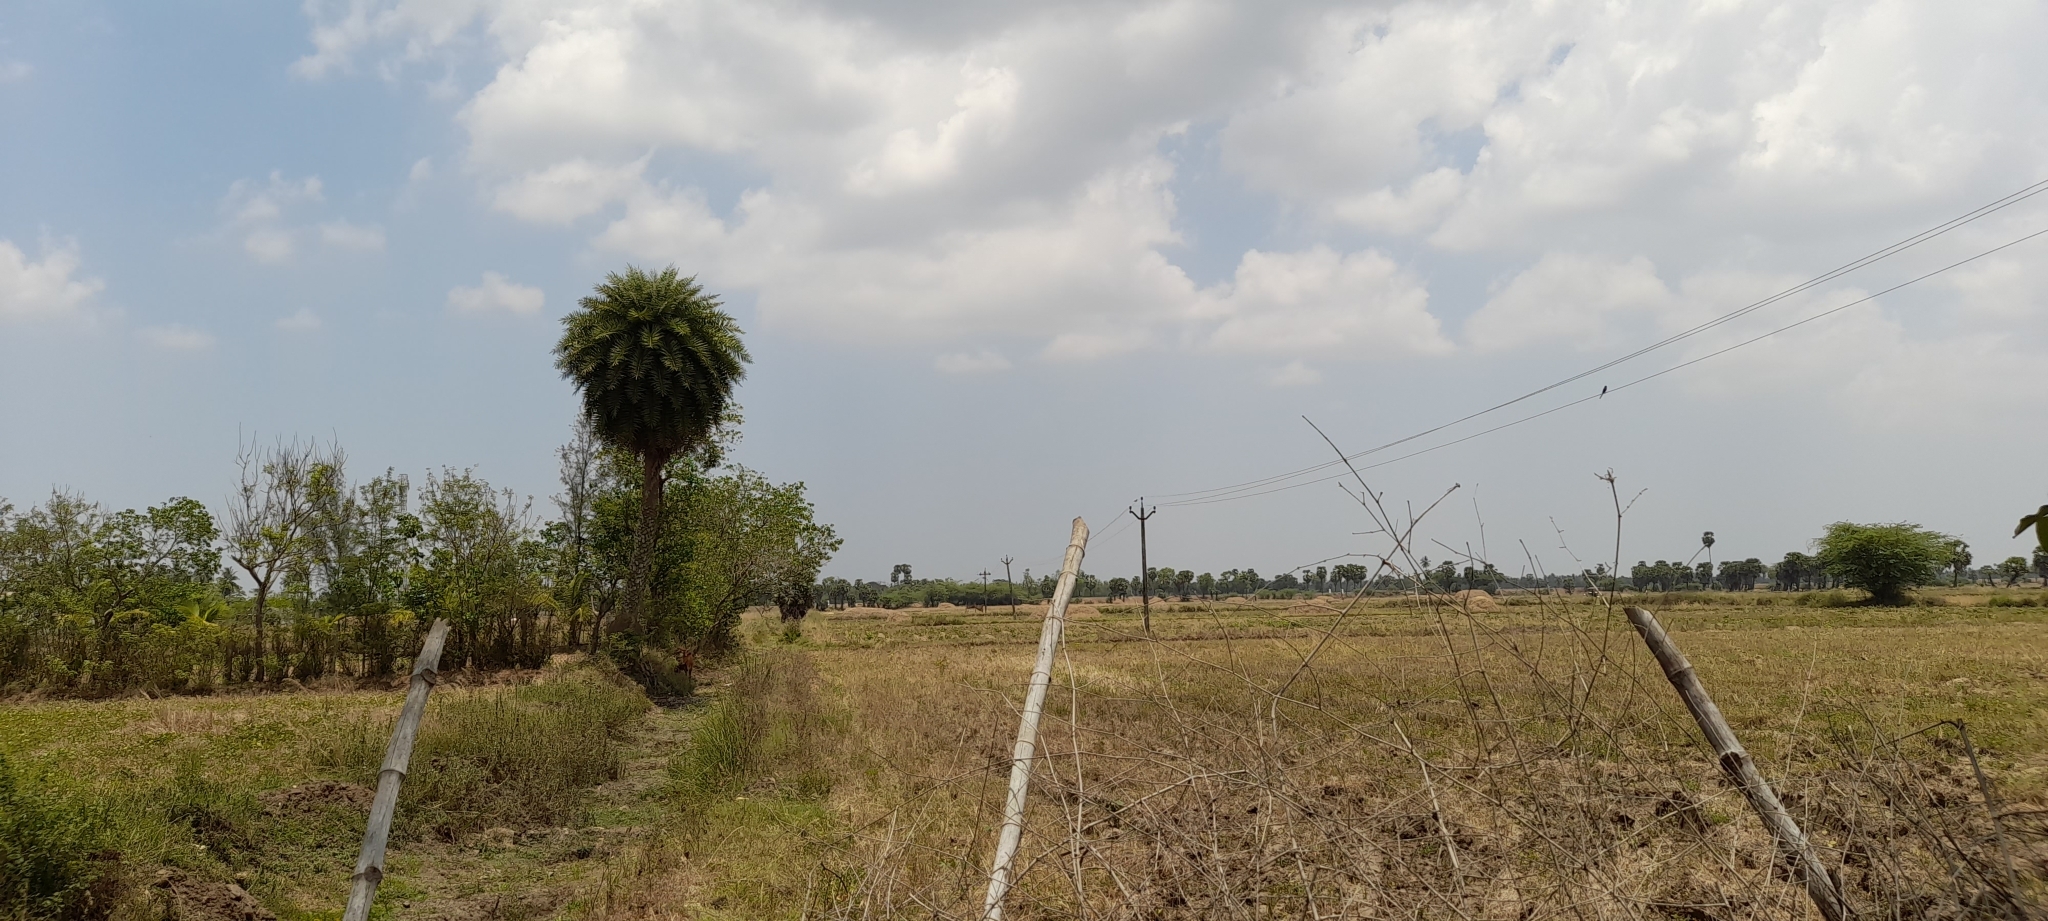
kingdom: Plantae
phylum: Tracheophyta
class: Liliopsida
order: Arecales
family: Arecaceae
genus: Phoenix
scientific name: Phoenix sylvestris
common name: Wild date palm
